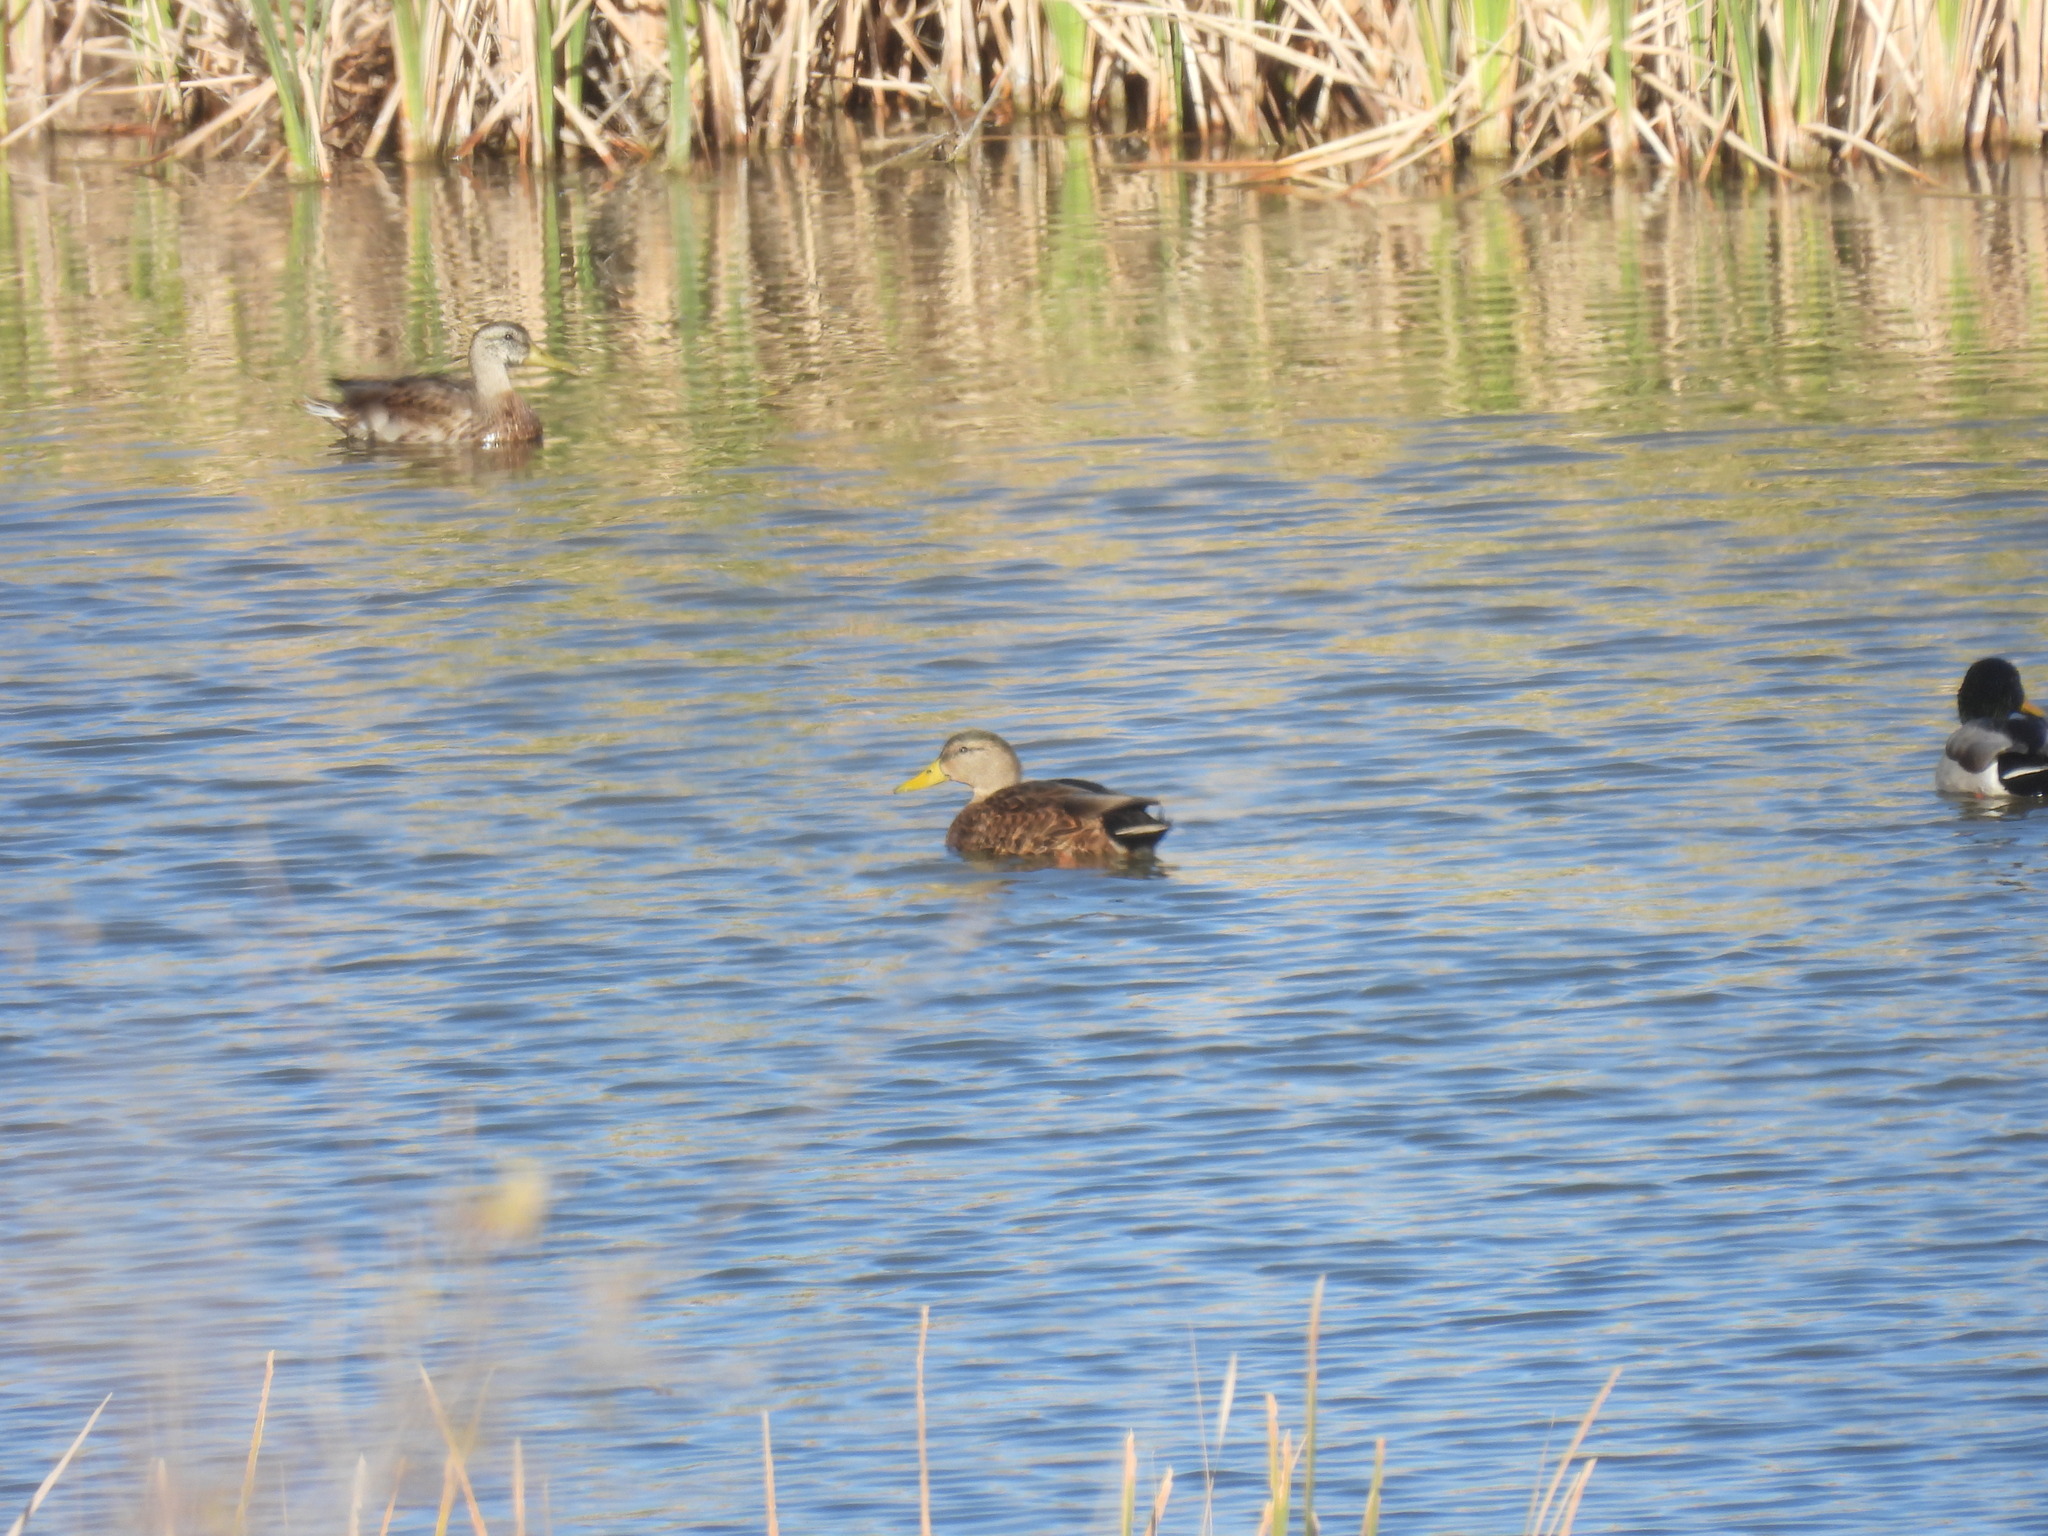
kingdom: Animalia
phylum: Chordata
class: Aves
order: Anseriformes
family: Anatidae
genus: Anas
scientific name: Anas
